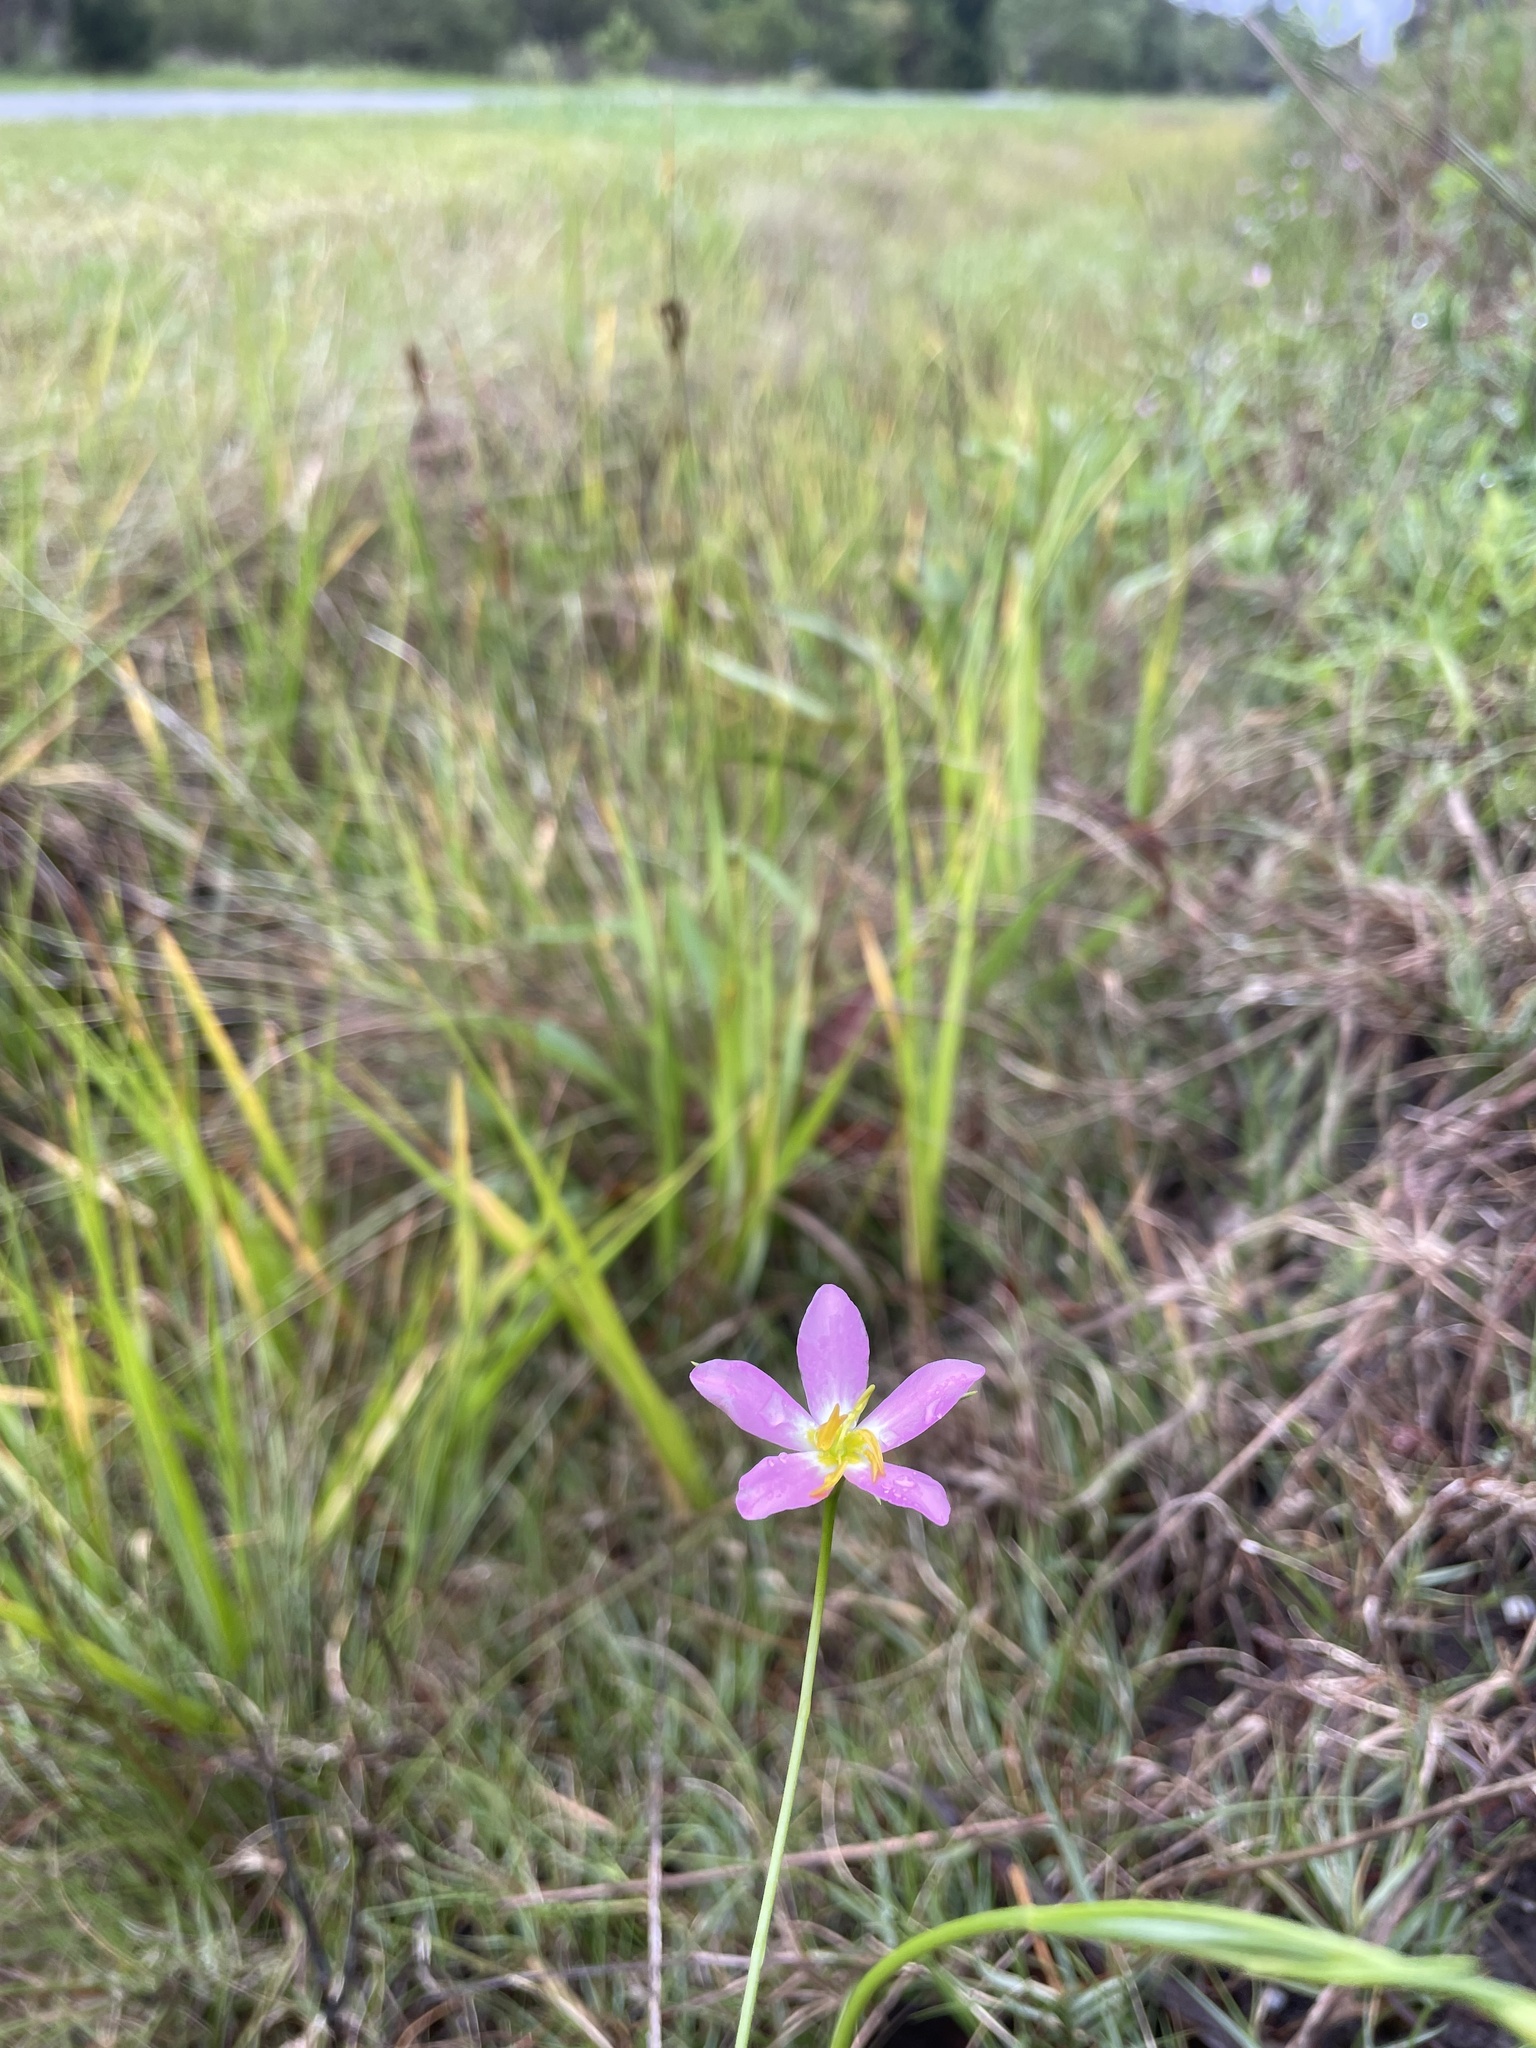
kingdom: Plantae
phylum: Tracheophyta
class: Magnoliopsida
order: Gentianales
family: Gentianaceae
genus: Sabatia
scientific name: Sabatia stellaris
